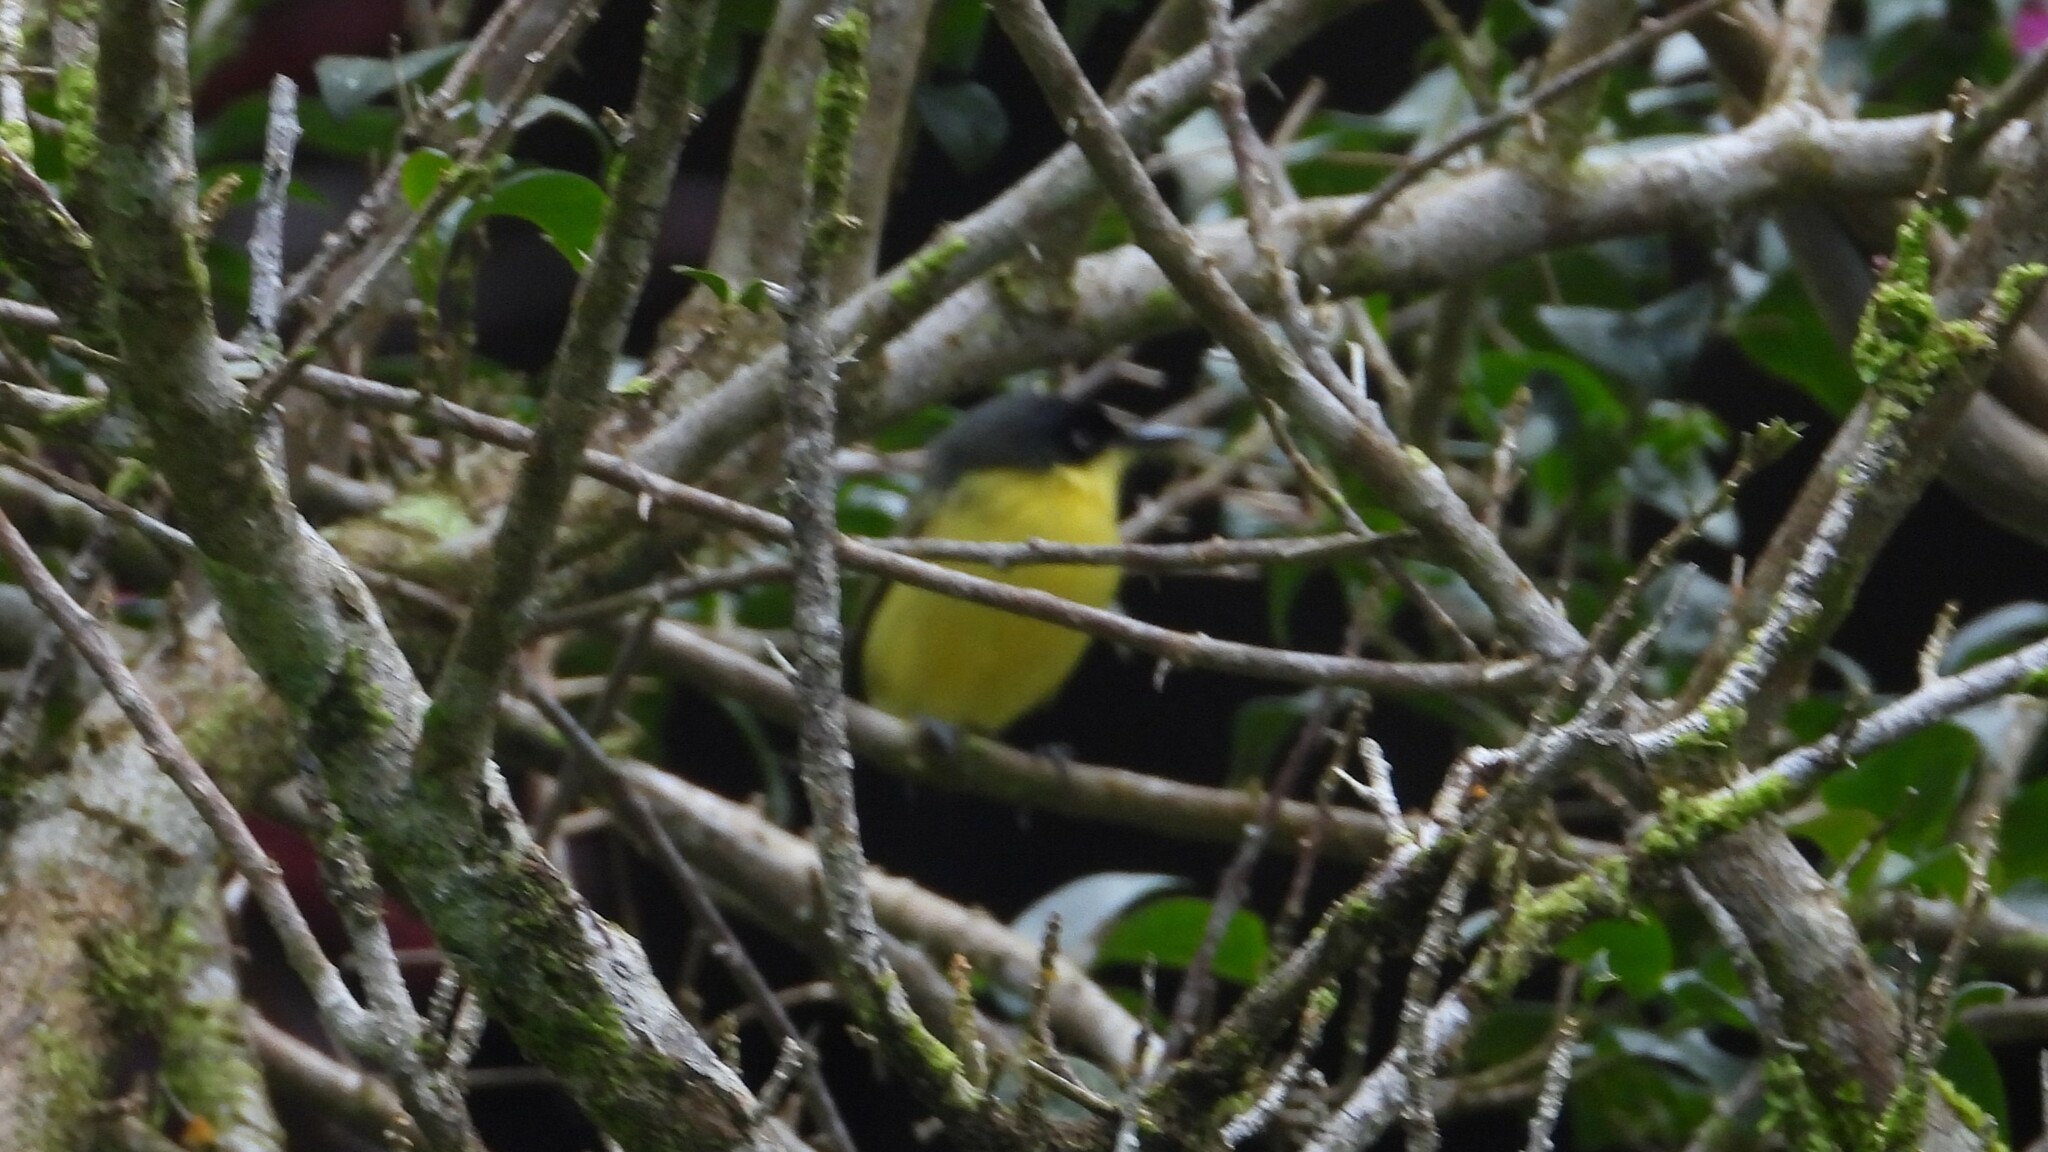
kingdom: Animalia
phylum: Chordata
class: Aves
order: Passeriformes
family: Tyrannidae
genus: Todirostrum
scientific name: Todirostrum cinereum
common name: Common tody-flycatcher
